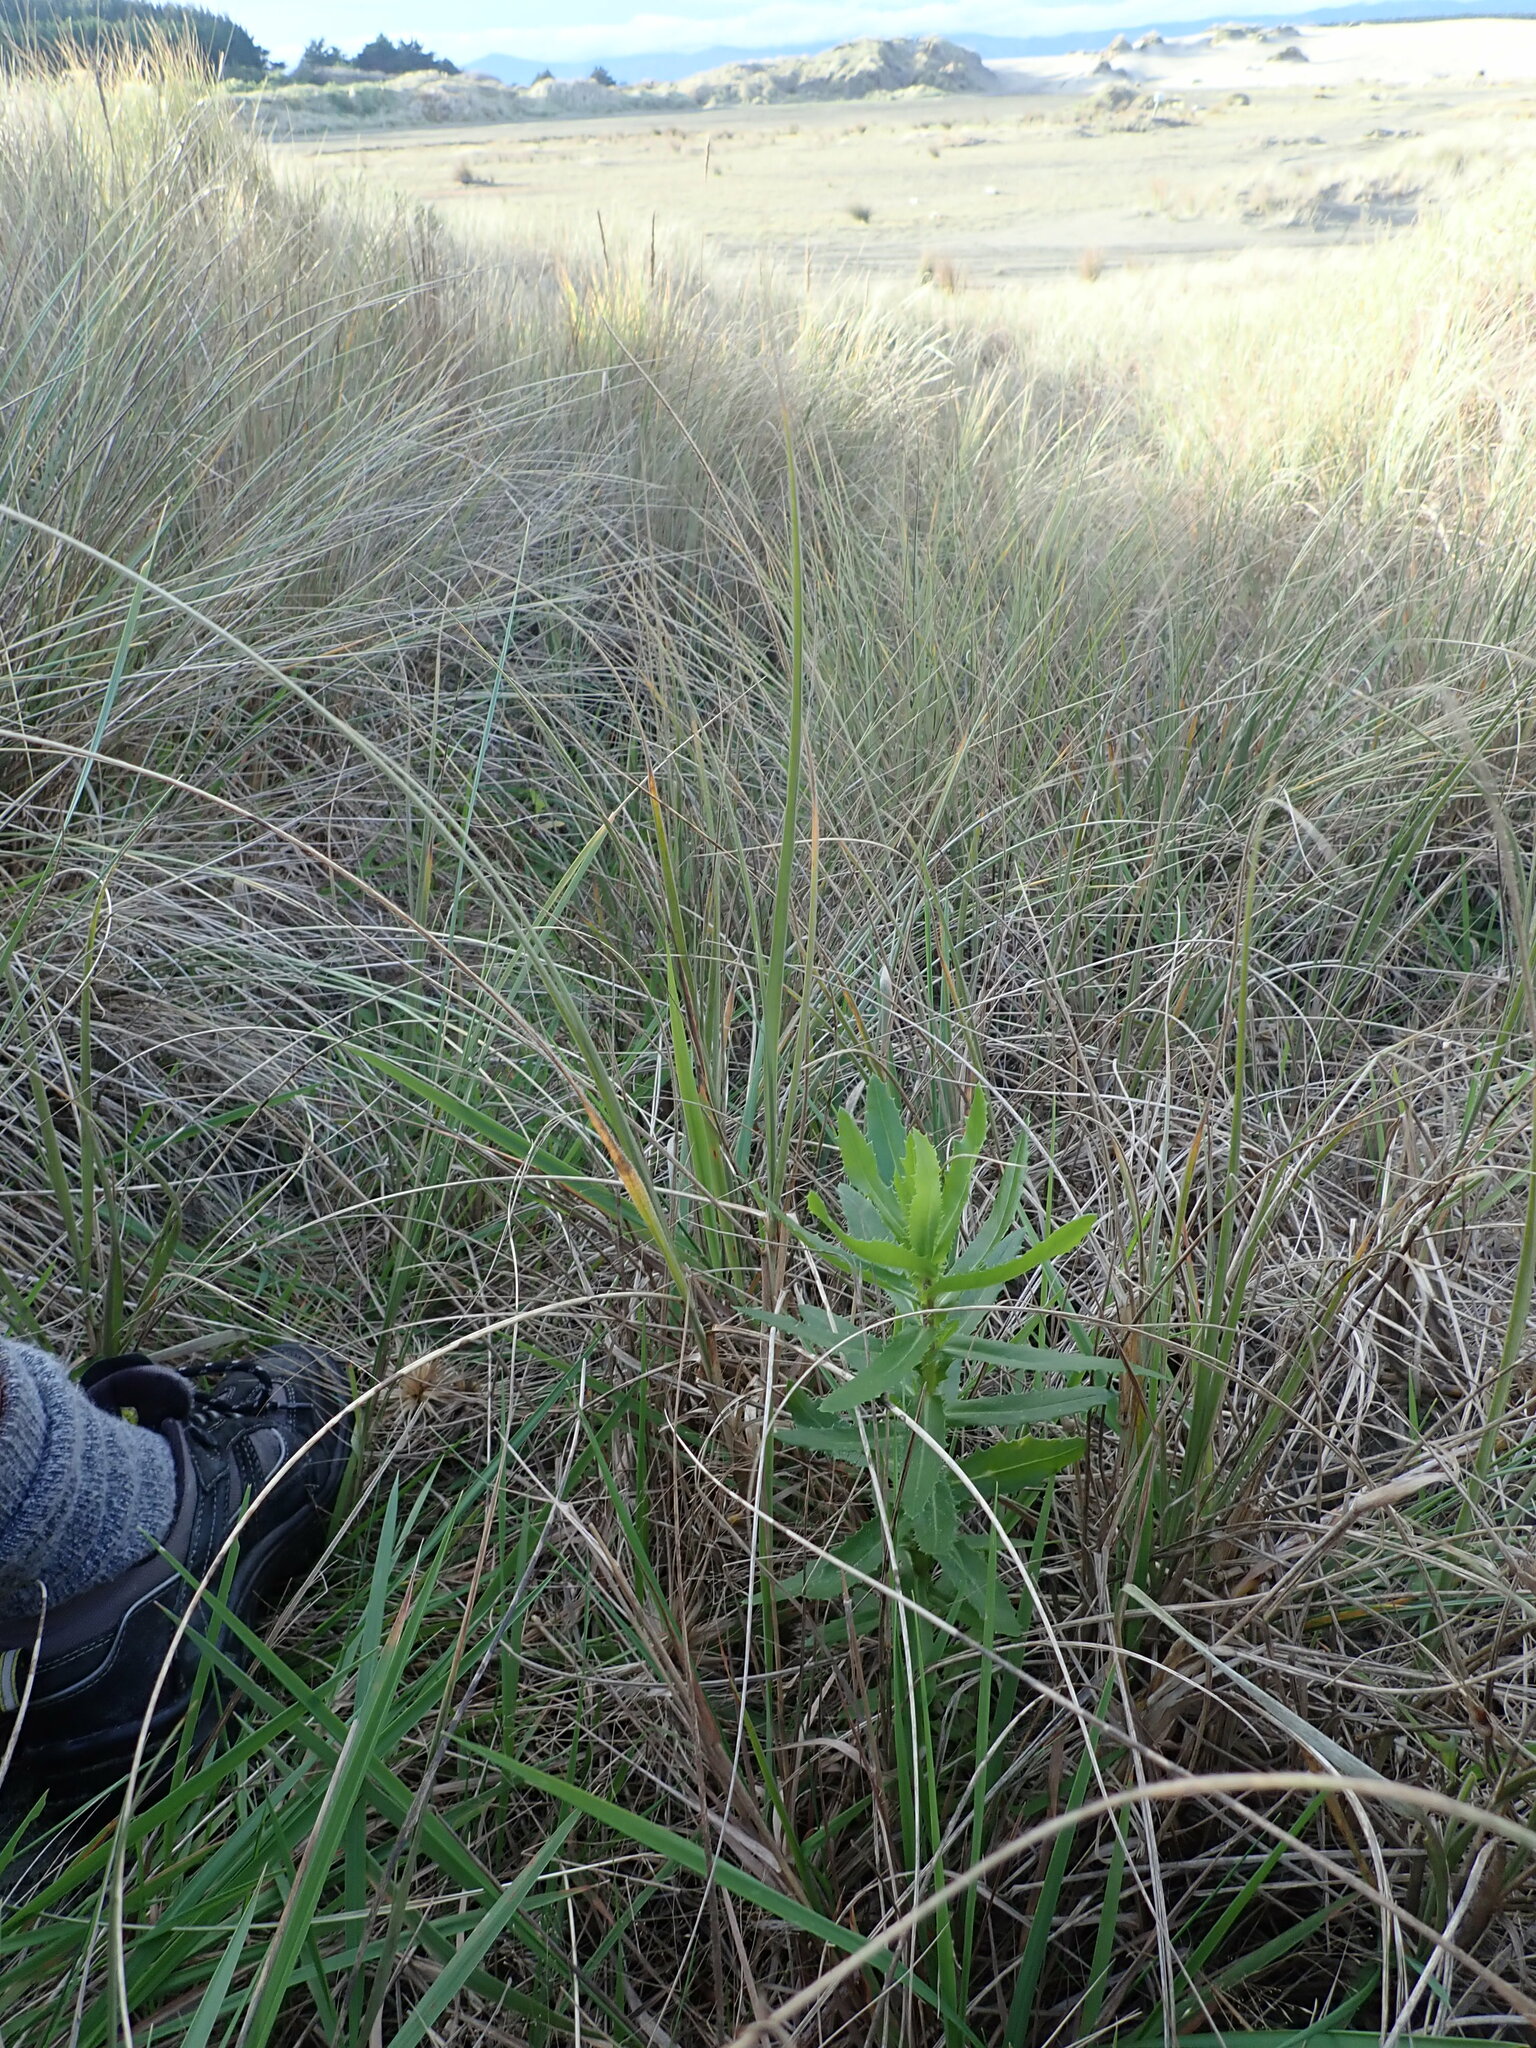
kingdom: Plantae
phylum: Tracheophyta
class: Magnoliopsida
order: Asterales
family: Asteraceae
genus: Senecio
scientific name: Senecio glastifolius
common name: Woad-leaved ragwort
